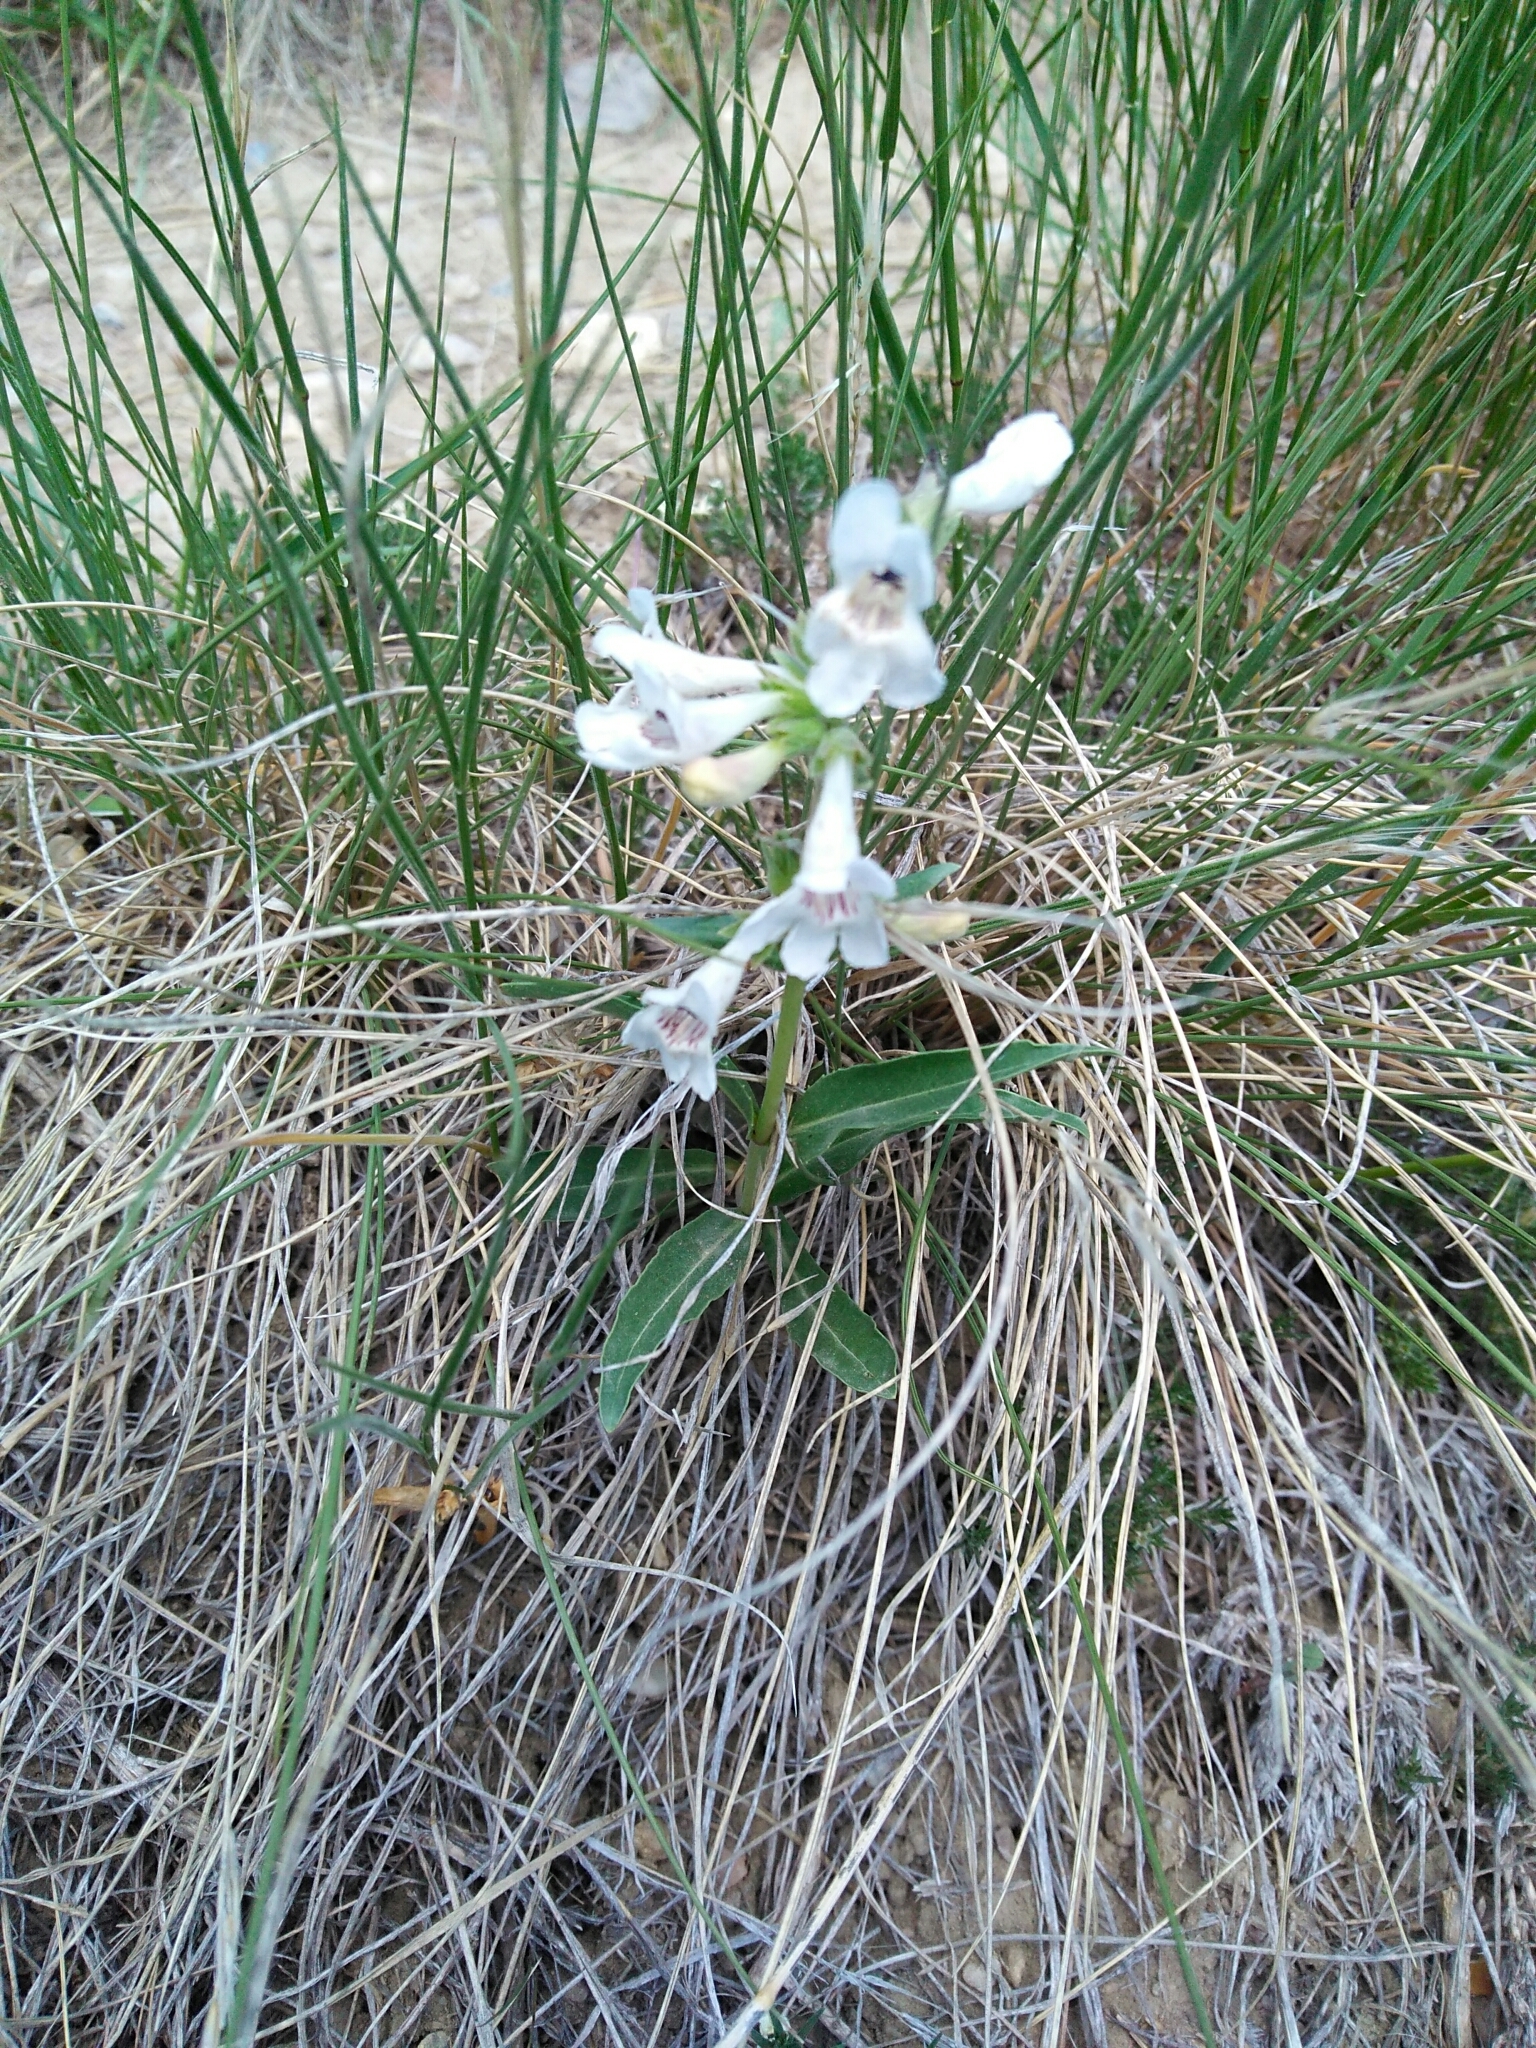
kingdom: Plantae
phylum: Tracheophyta
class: Magnoliopsida
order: Lamiales
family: Plantaginaceae
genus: Penstemon
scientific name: Penstemon albidus
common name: White beardtongue
